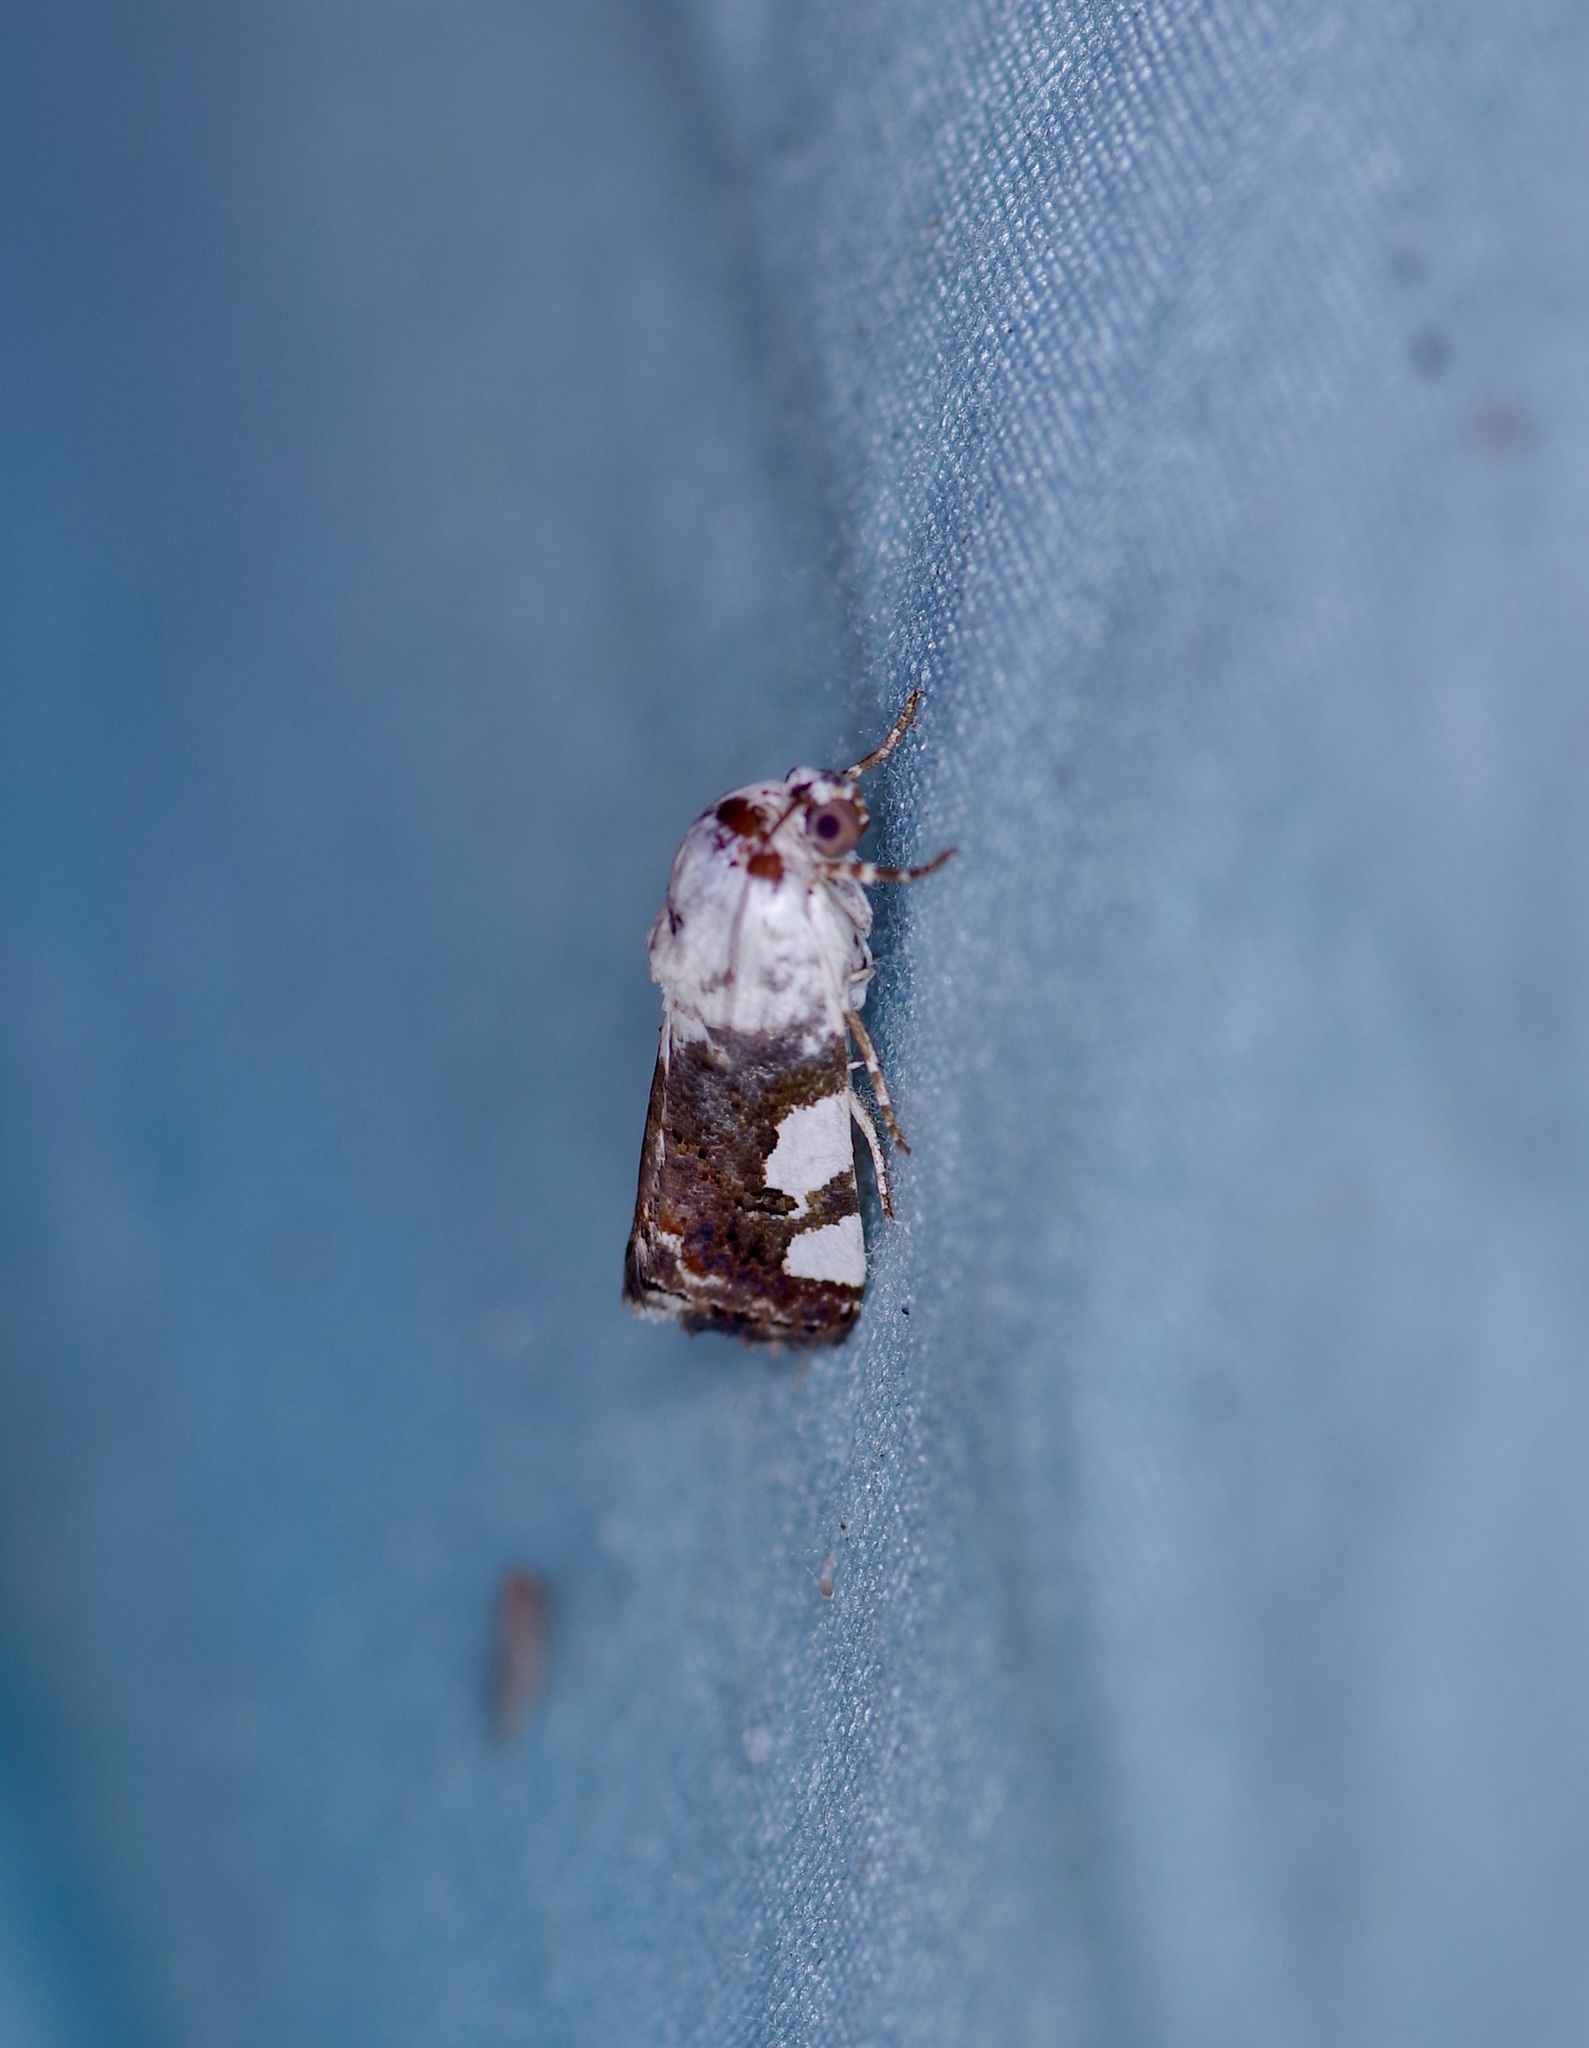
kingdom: Animalia
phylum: Arthropoda
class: Insecta
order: Lepidoptera
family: Noctuidae
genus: Acontia
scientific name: Acontia quadriplaga
